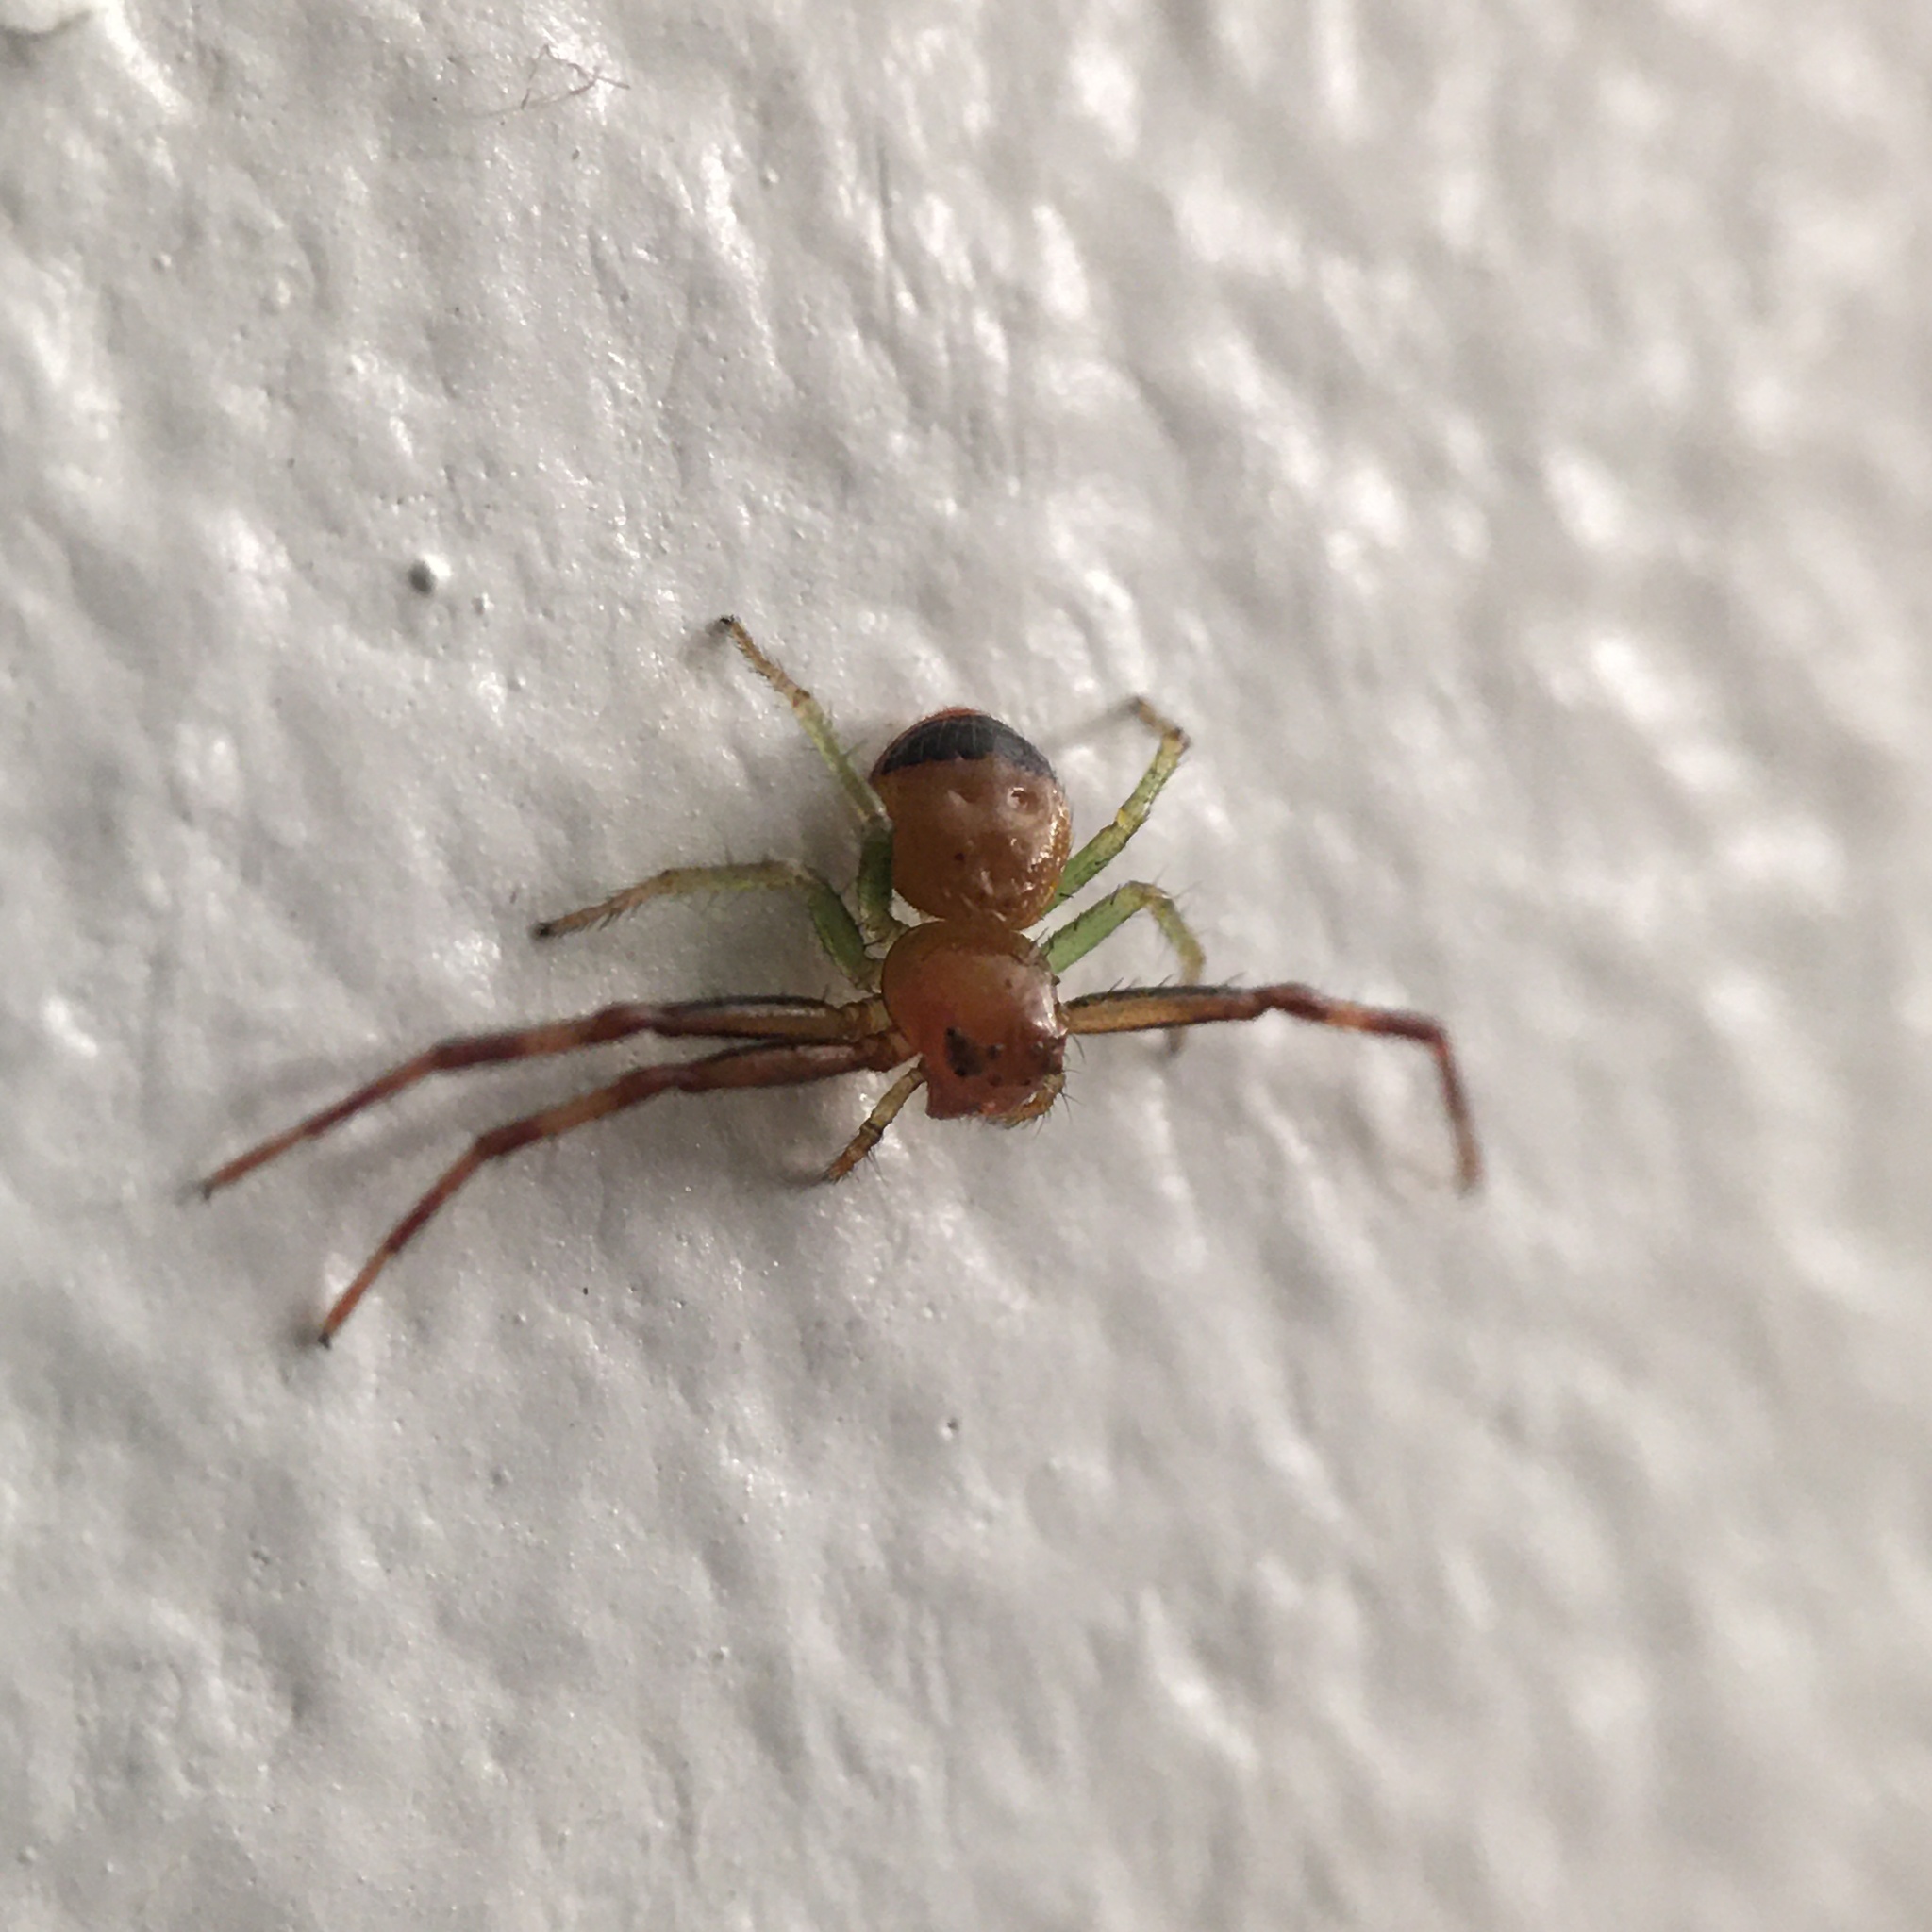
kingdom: Animalia
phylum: Arthropoda
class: Arachnida
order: Araneae
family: Thomisidae
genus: Synema
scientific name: Synema parvulum
